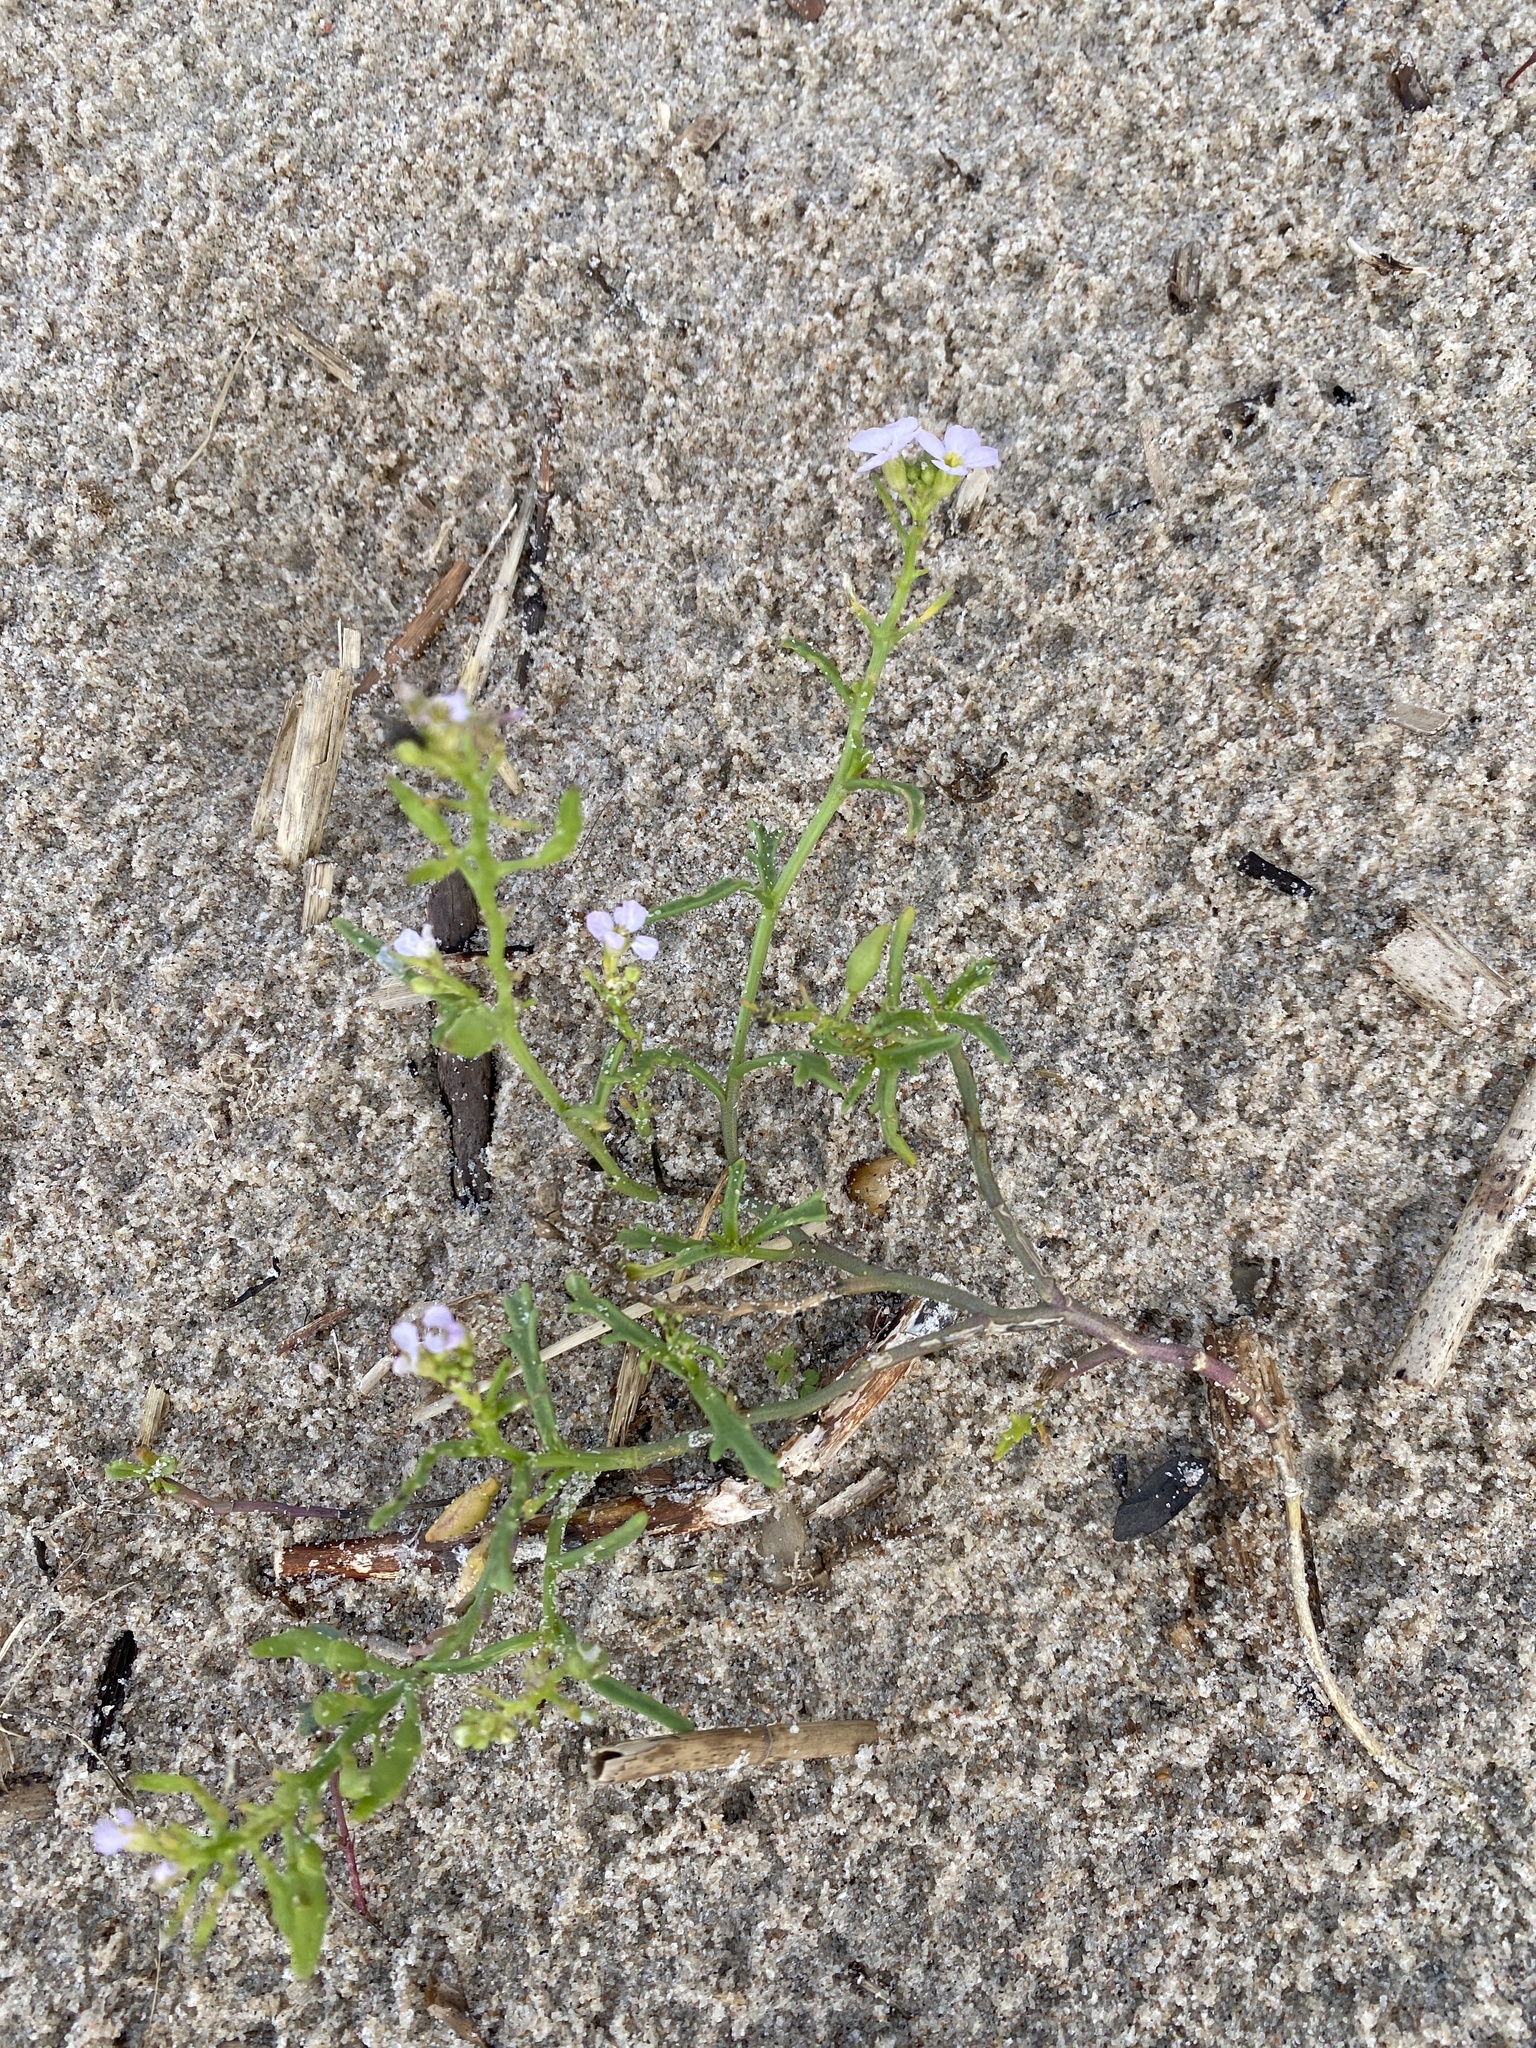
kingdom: Plantae
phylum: Tracheophyta
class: Magnoliopsida
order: Brassicales
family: Brassicaceae
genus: Cakile
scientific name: Cakile maritima
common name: Sea rocket
